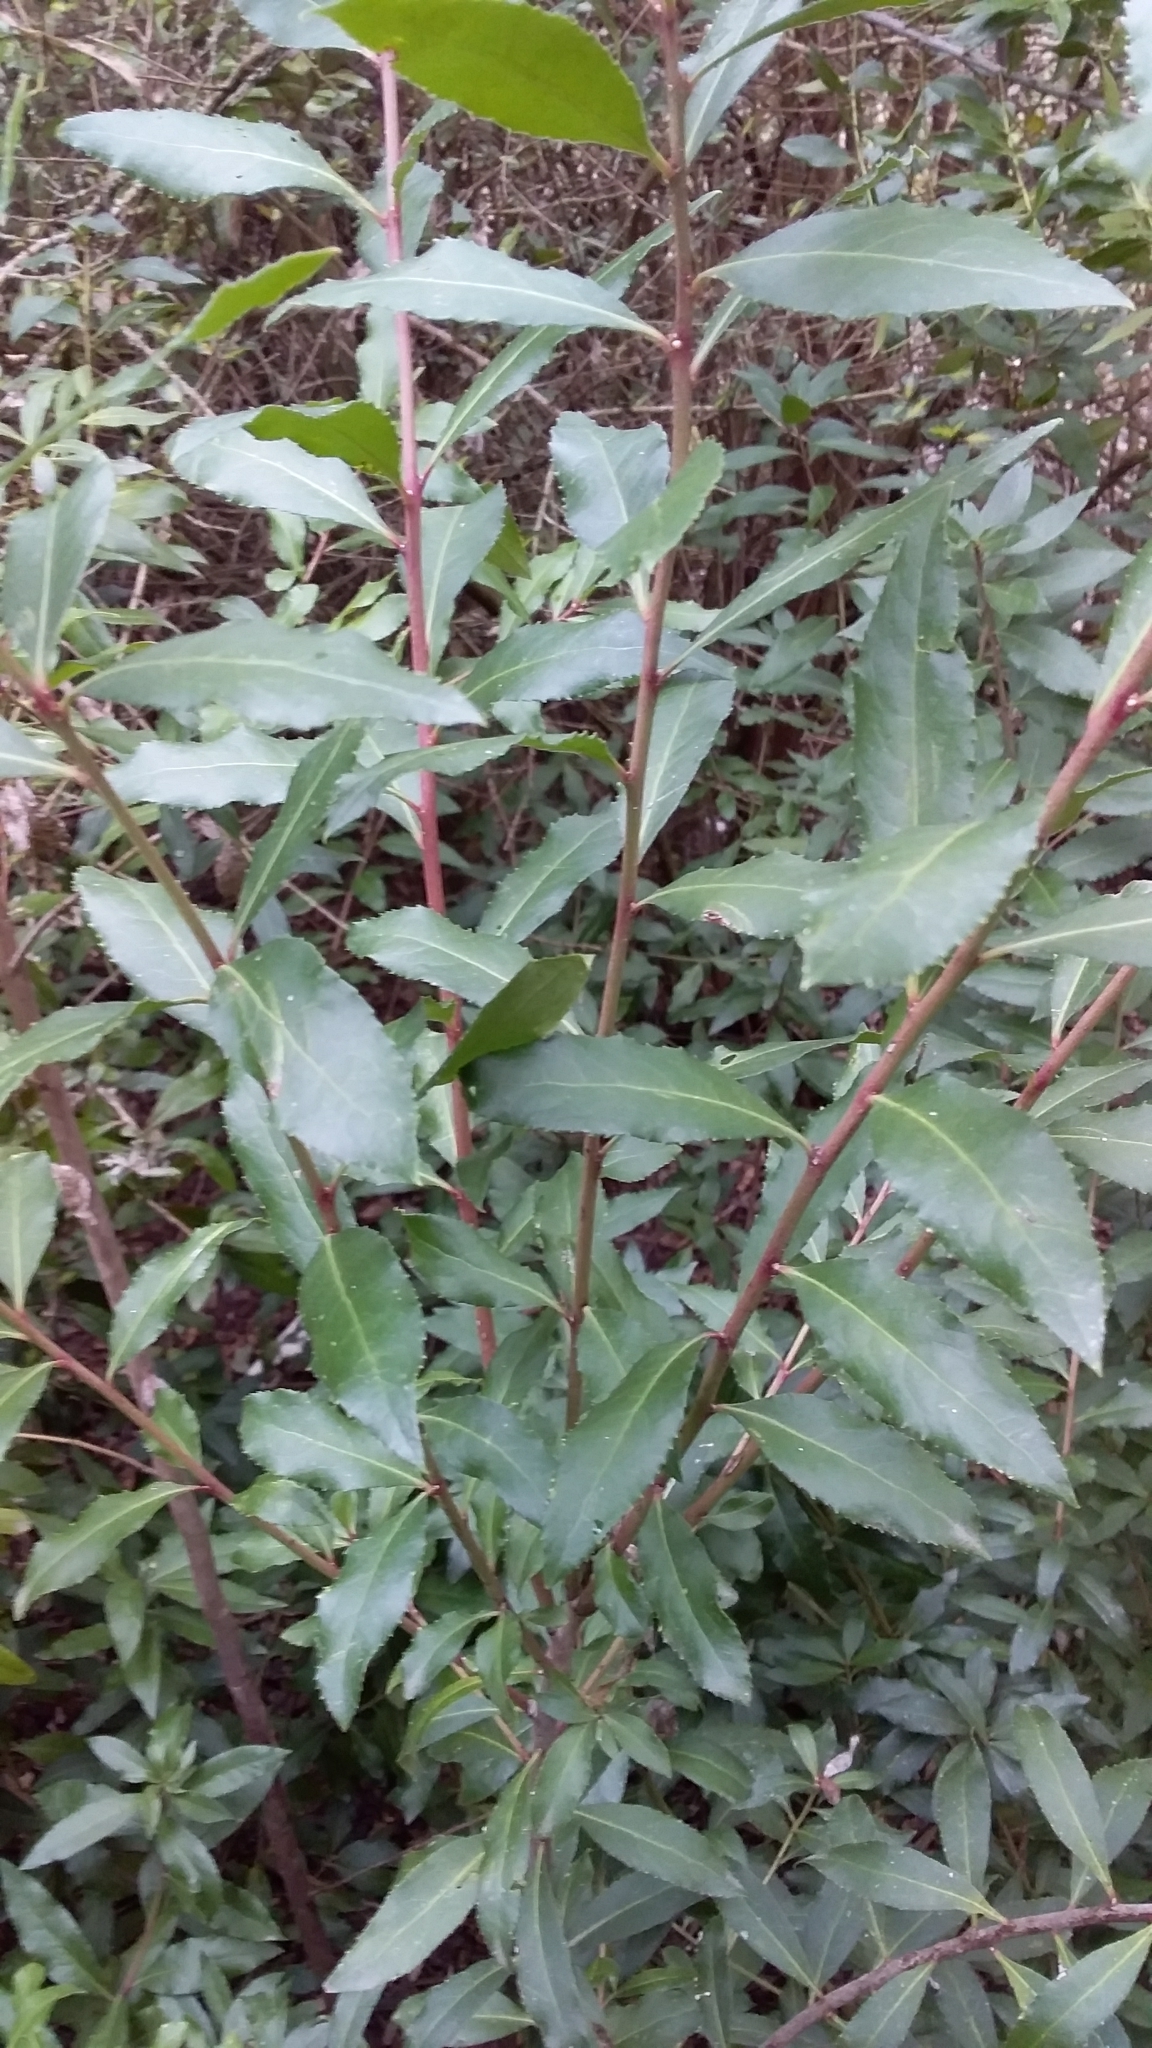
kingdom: Plantae
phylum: Tracheophyta
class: Magnoliopsida
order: Celastrales
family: Celastraceae
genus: Maytenus
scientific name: Maytenus boaria
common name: Mayten
